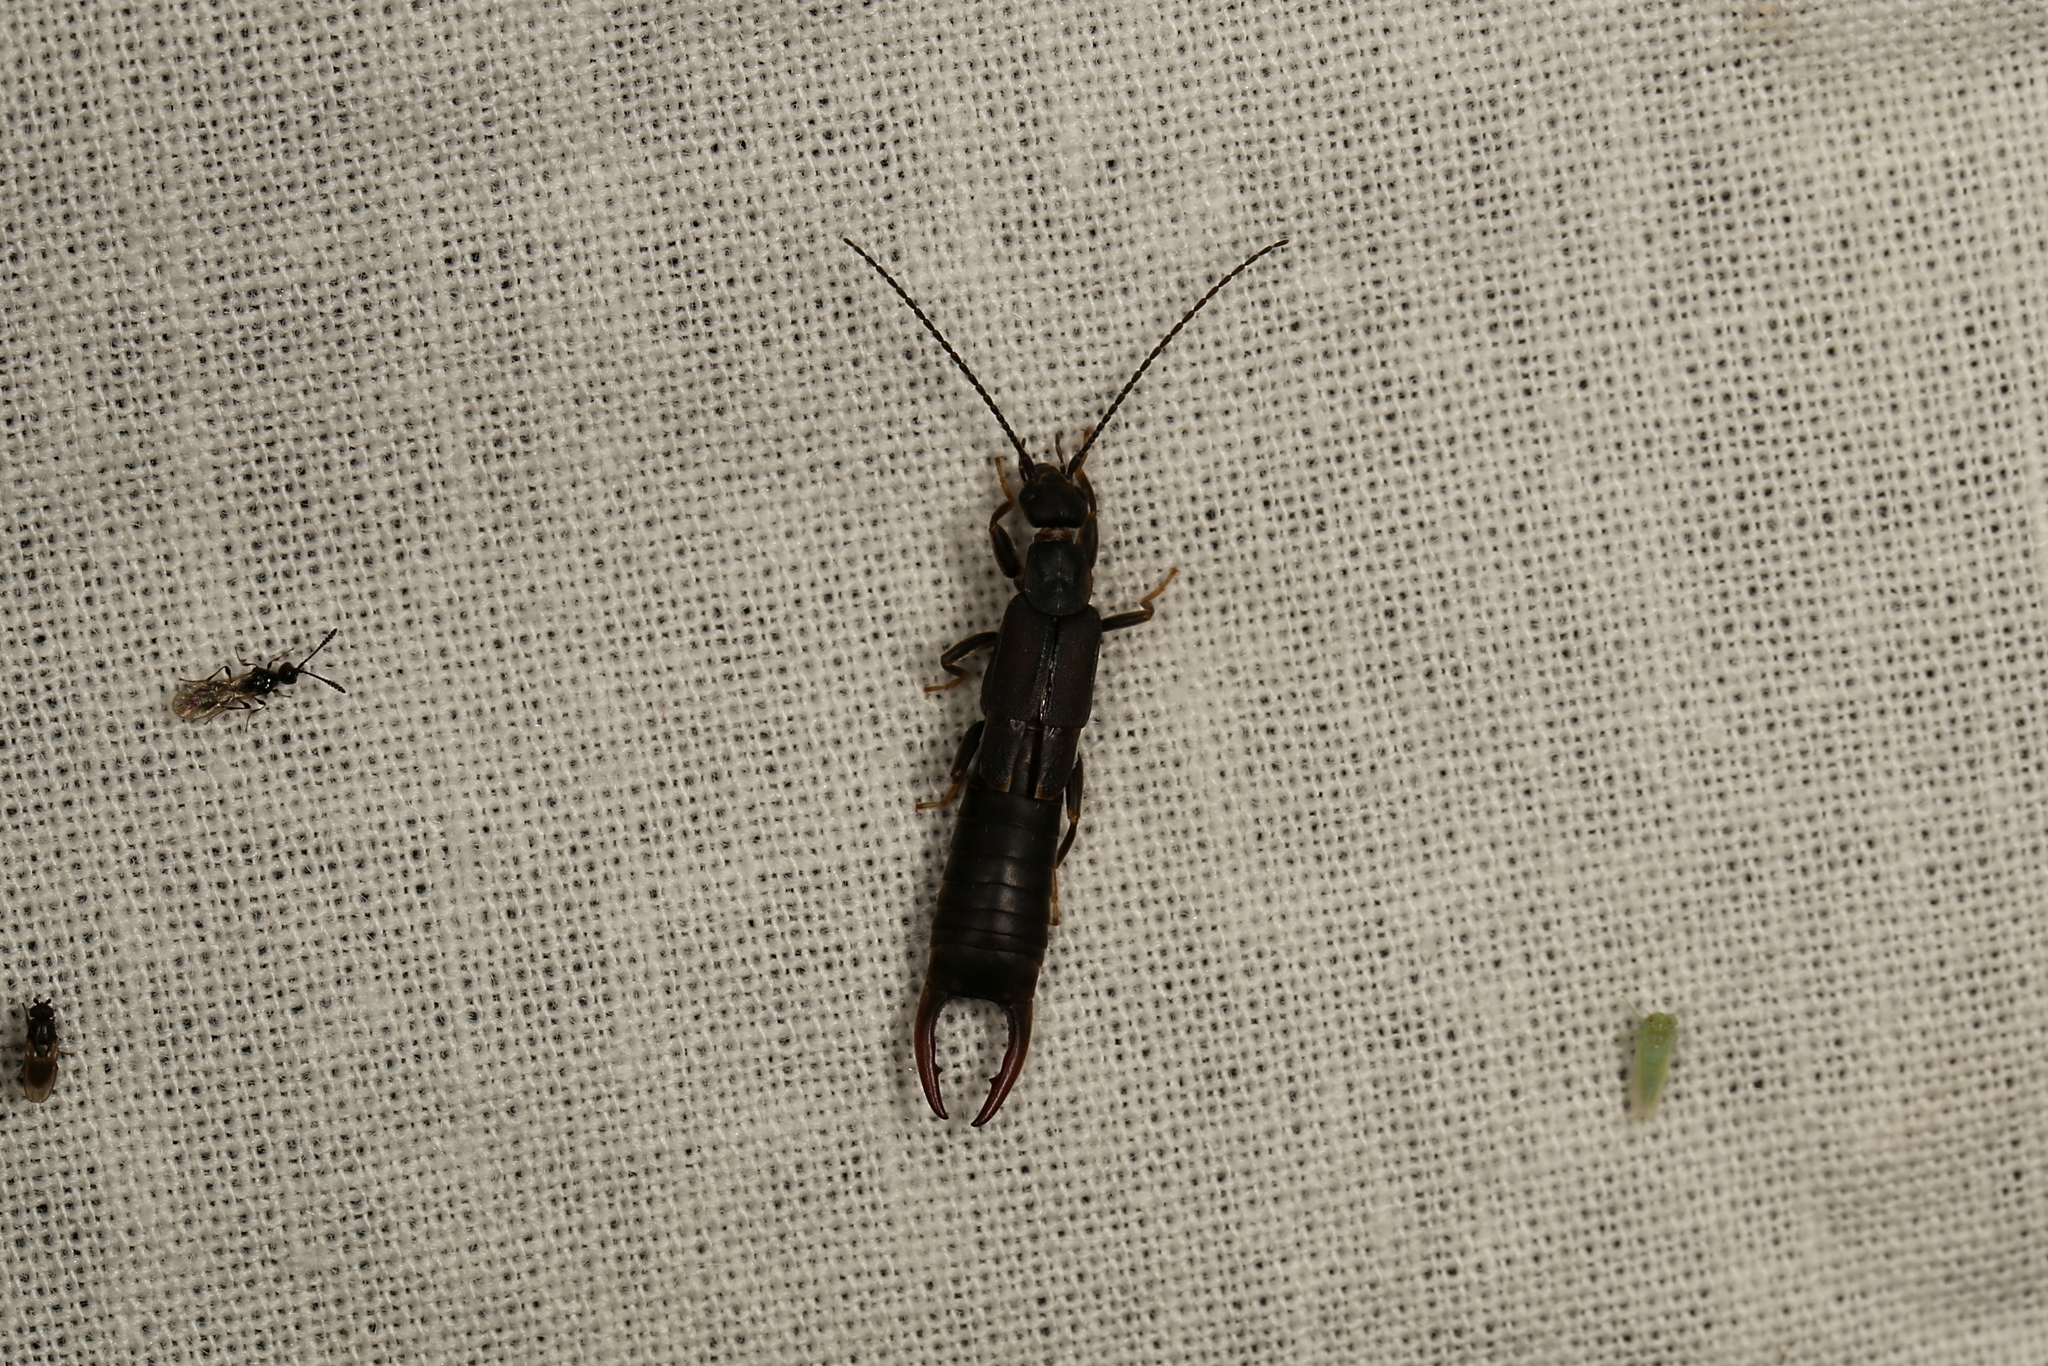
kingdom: Animalia
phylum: Arthropoda
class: Insecta
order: Dermaptera
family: Labiduridae
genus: Nala
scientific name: Nala lividipes
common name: Earwig
